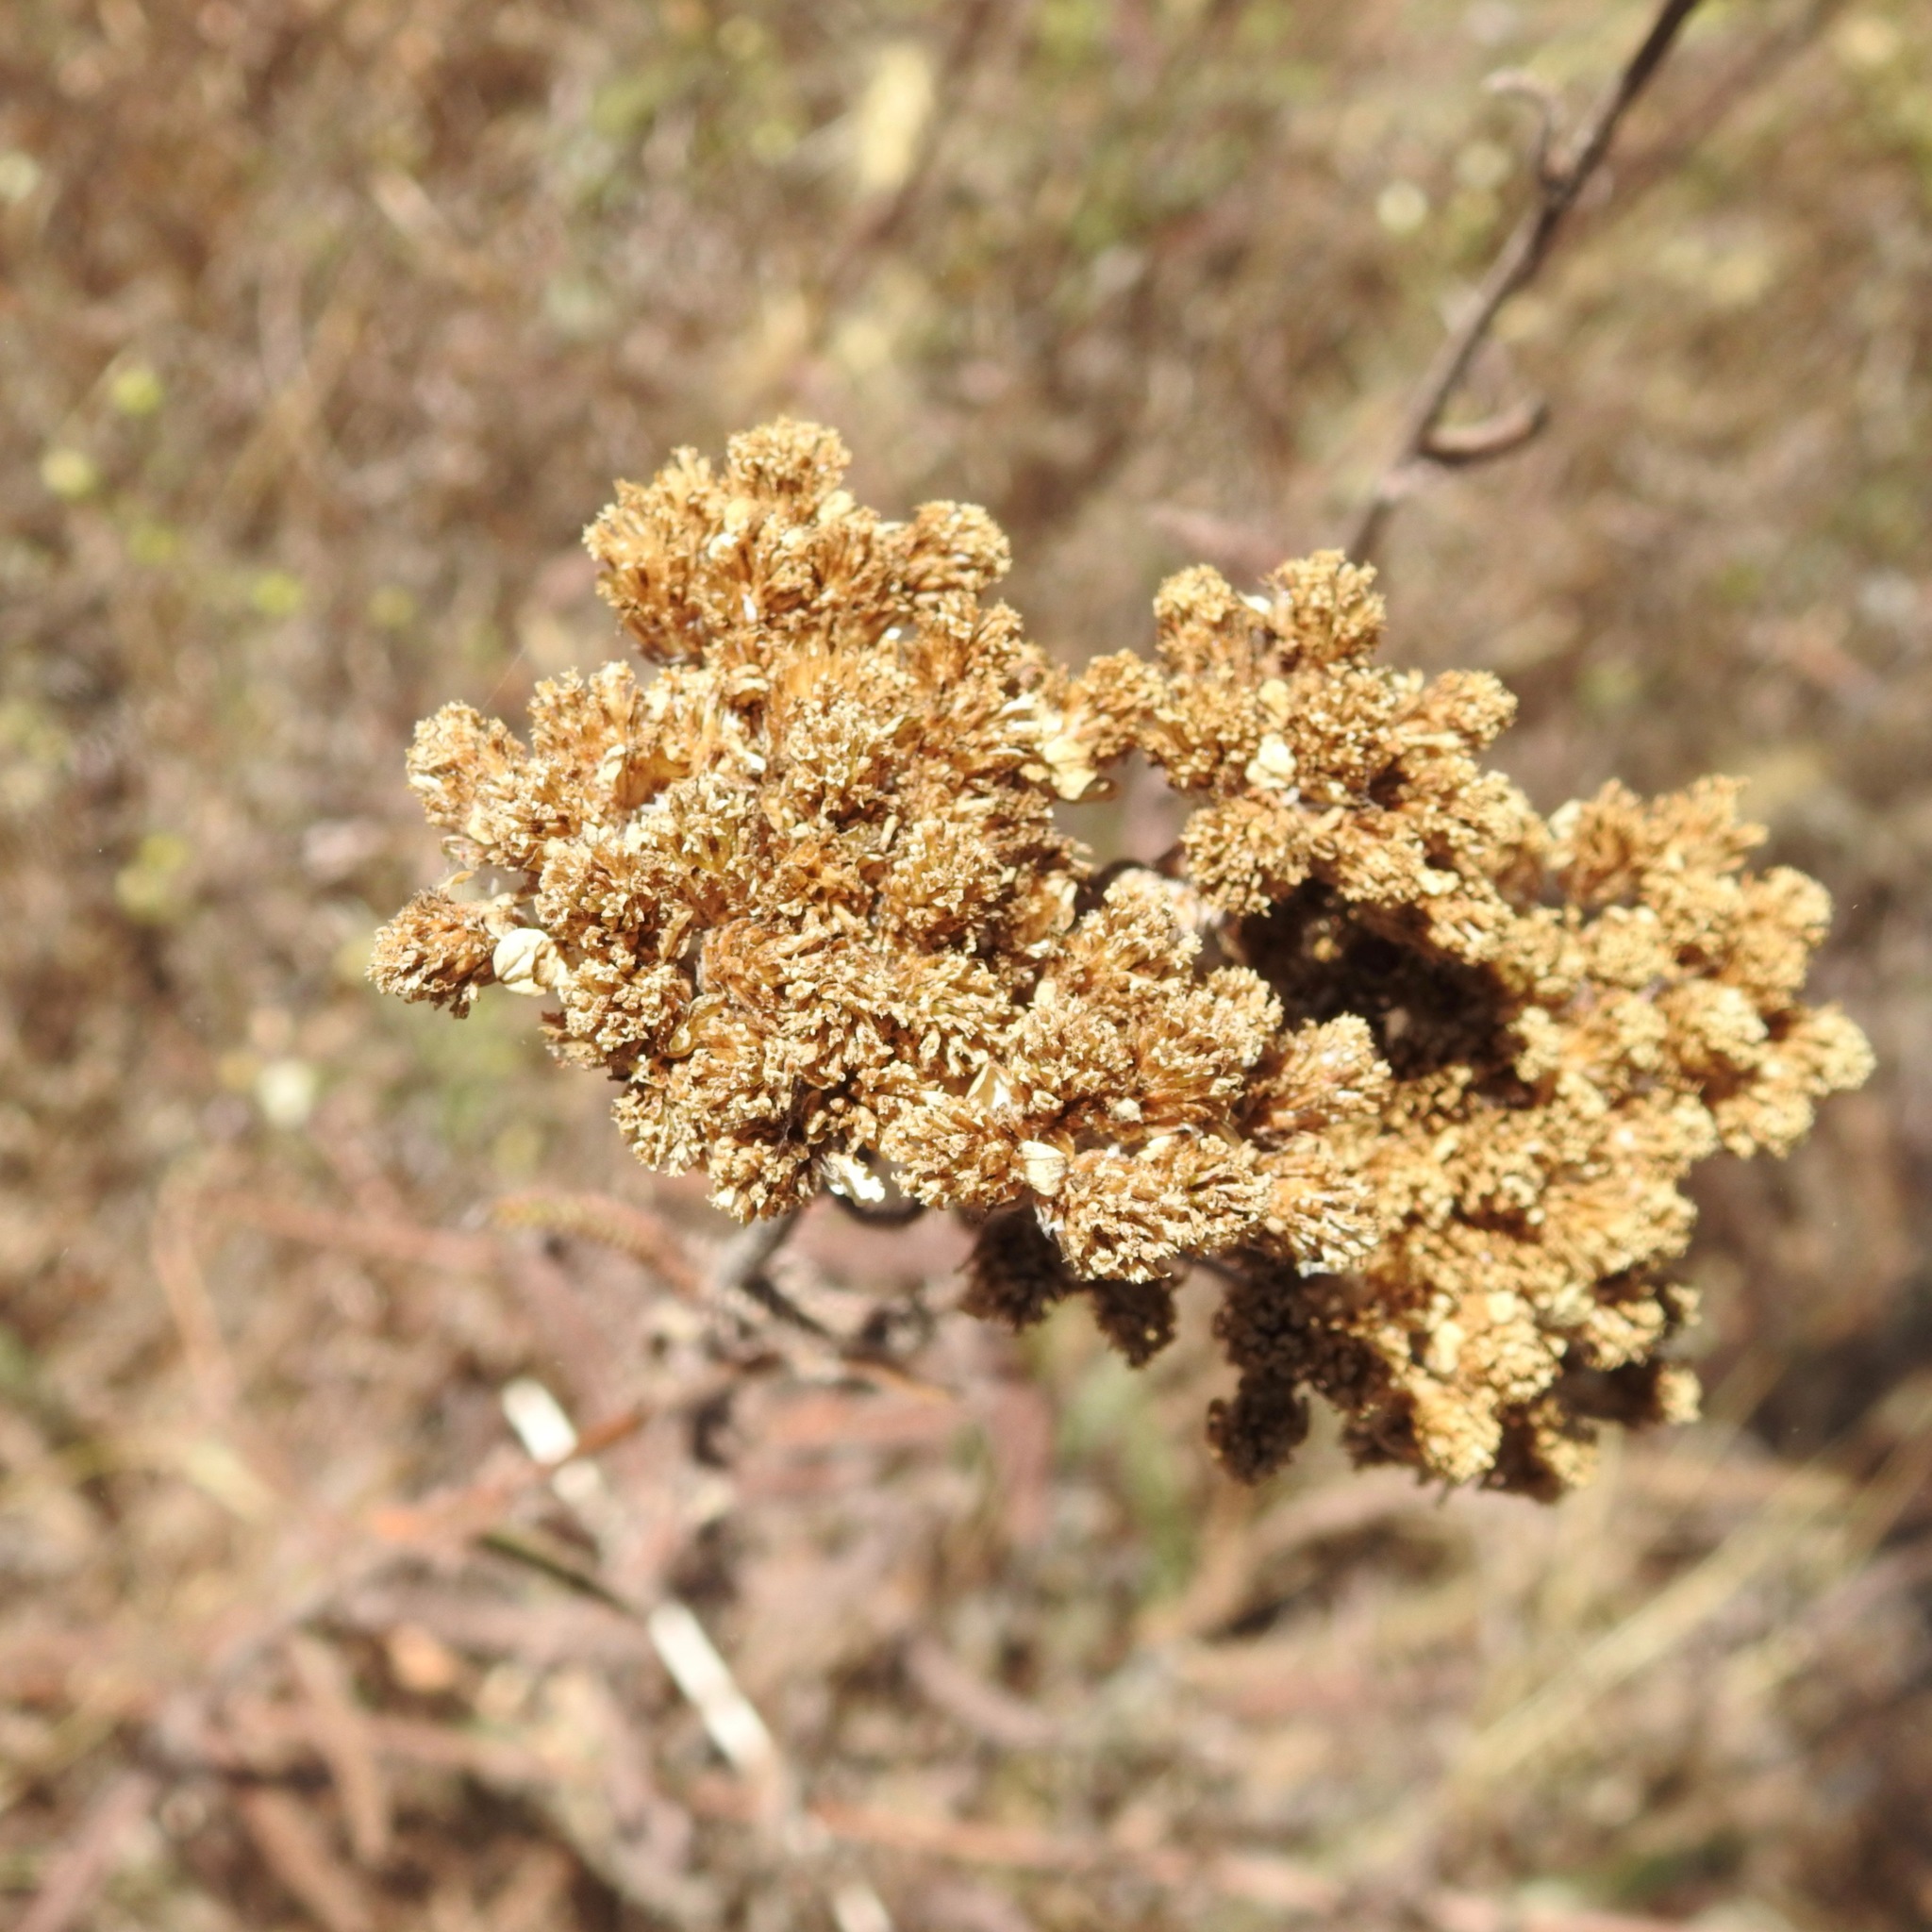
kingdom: Plantae
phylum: Tracheophyta
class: Magnoliopsida
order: Asterales
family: Asteraceae
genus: Achillea
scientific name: Achillea millefolium
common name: Yarrow
